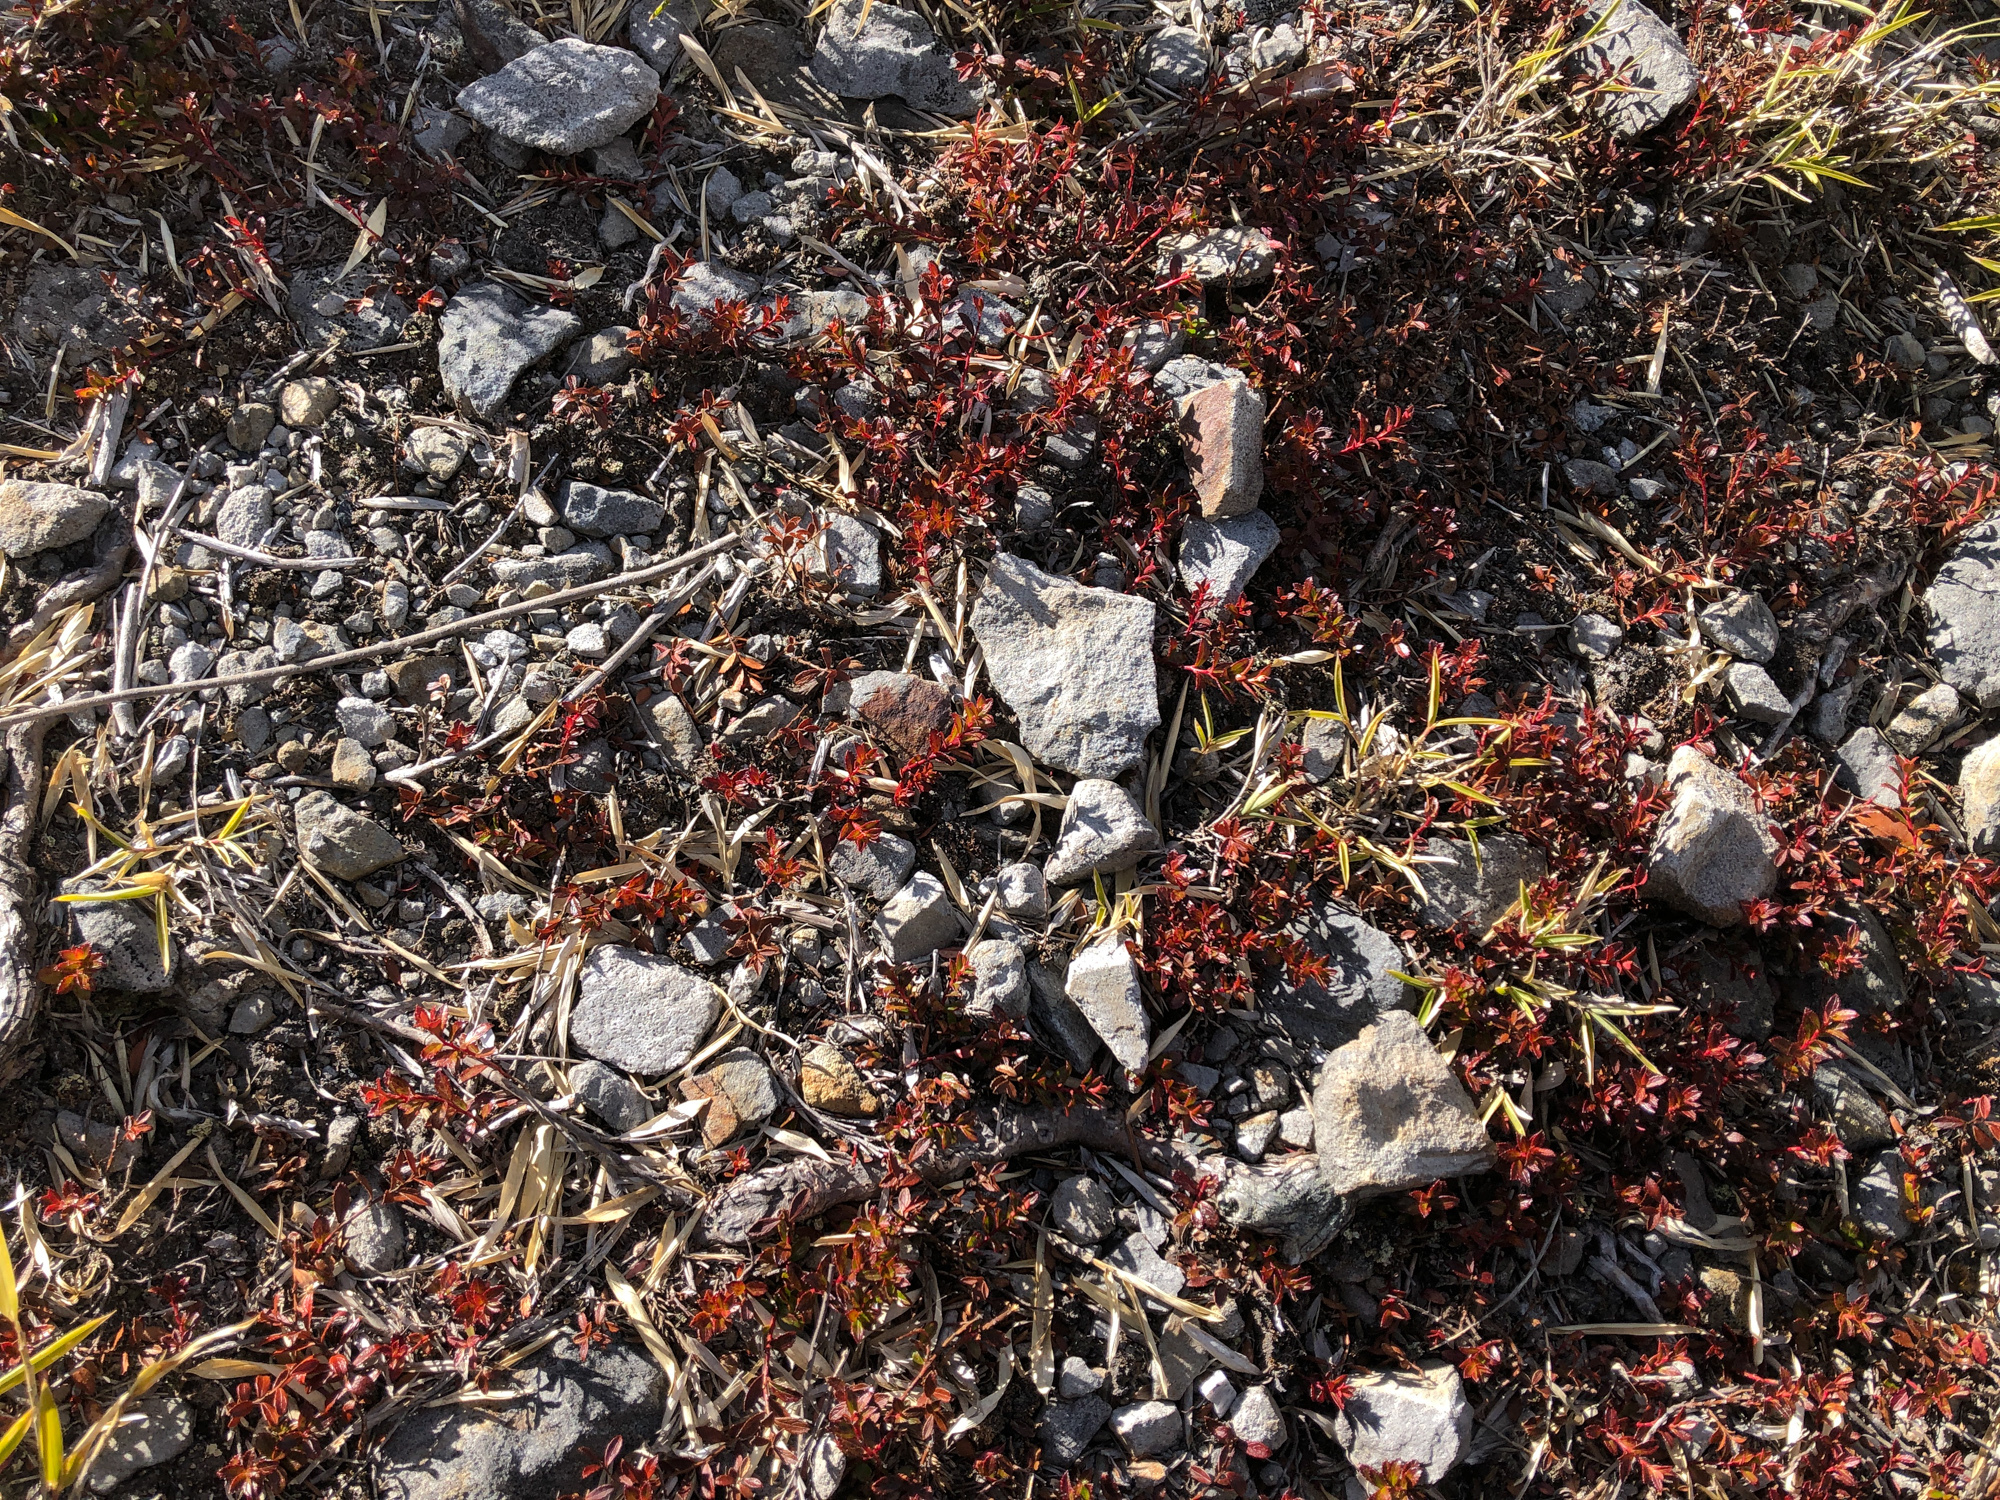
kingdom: Plantae
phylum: Tracheophyta
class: Magnoliopsida
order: Ericales
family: Ericaceae
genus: Gaultheria
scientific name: Gaultheria borneensis
